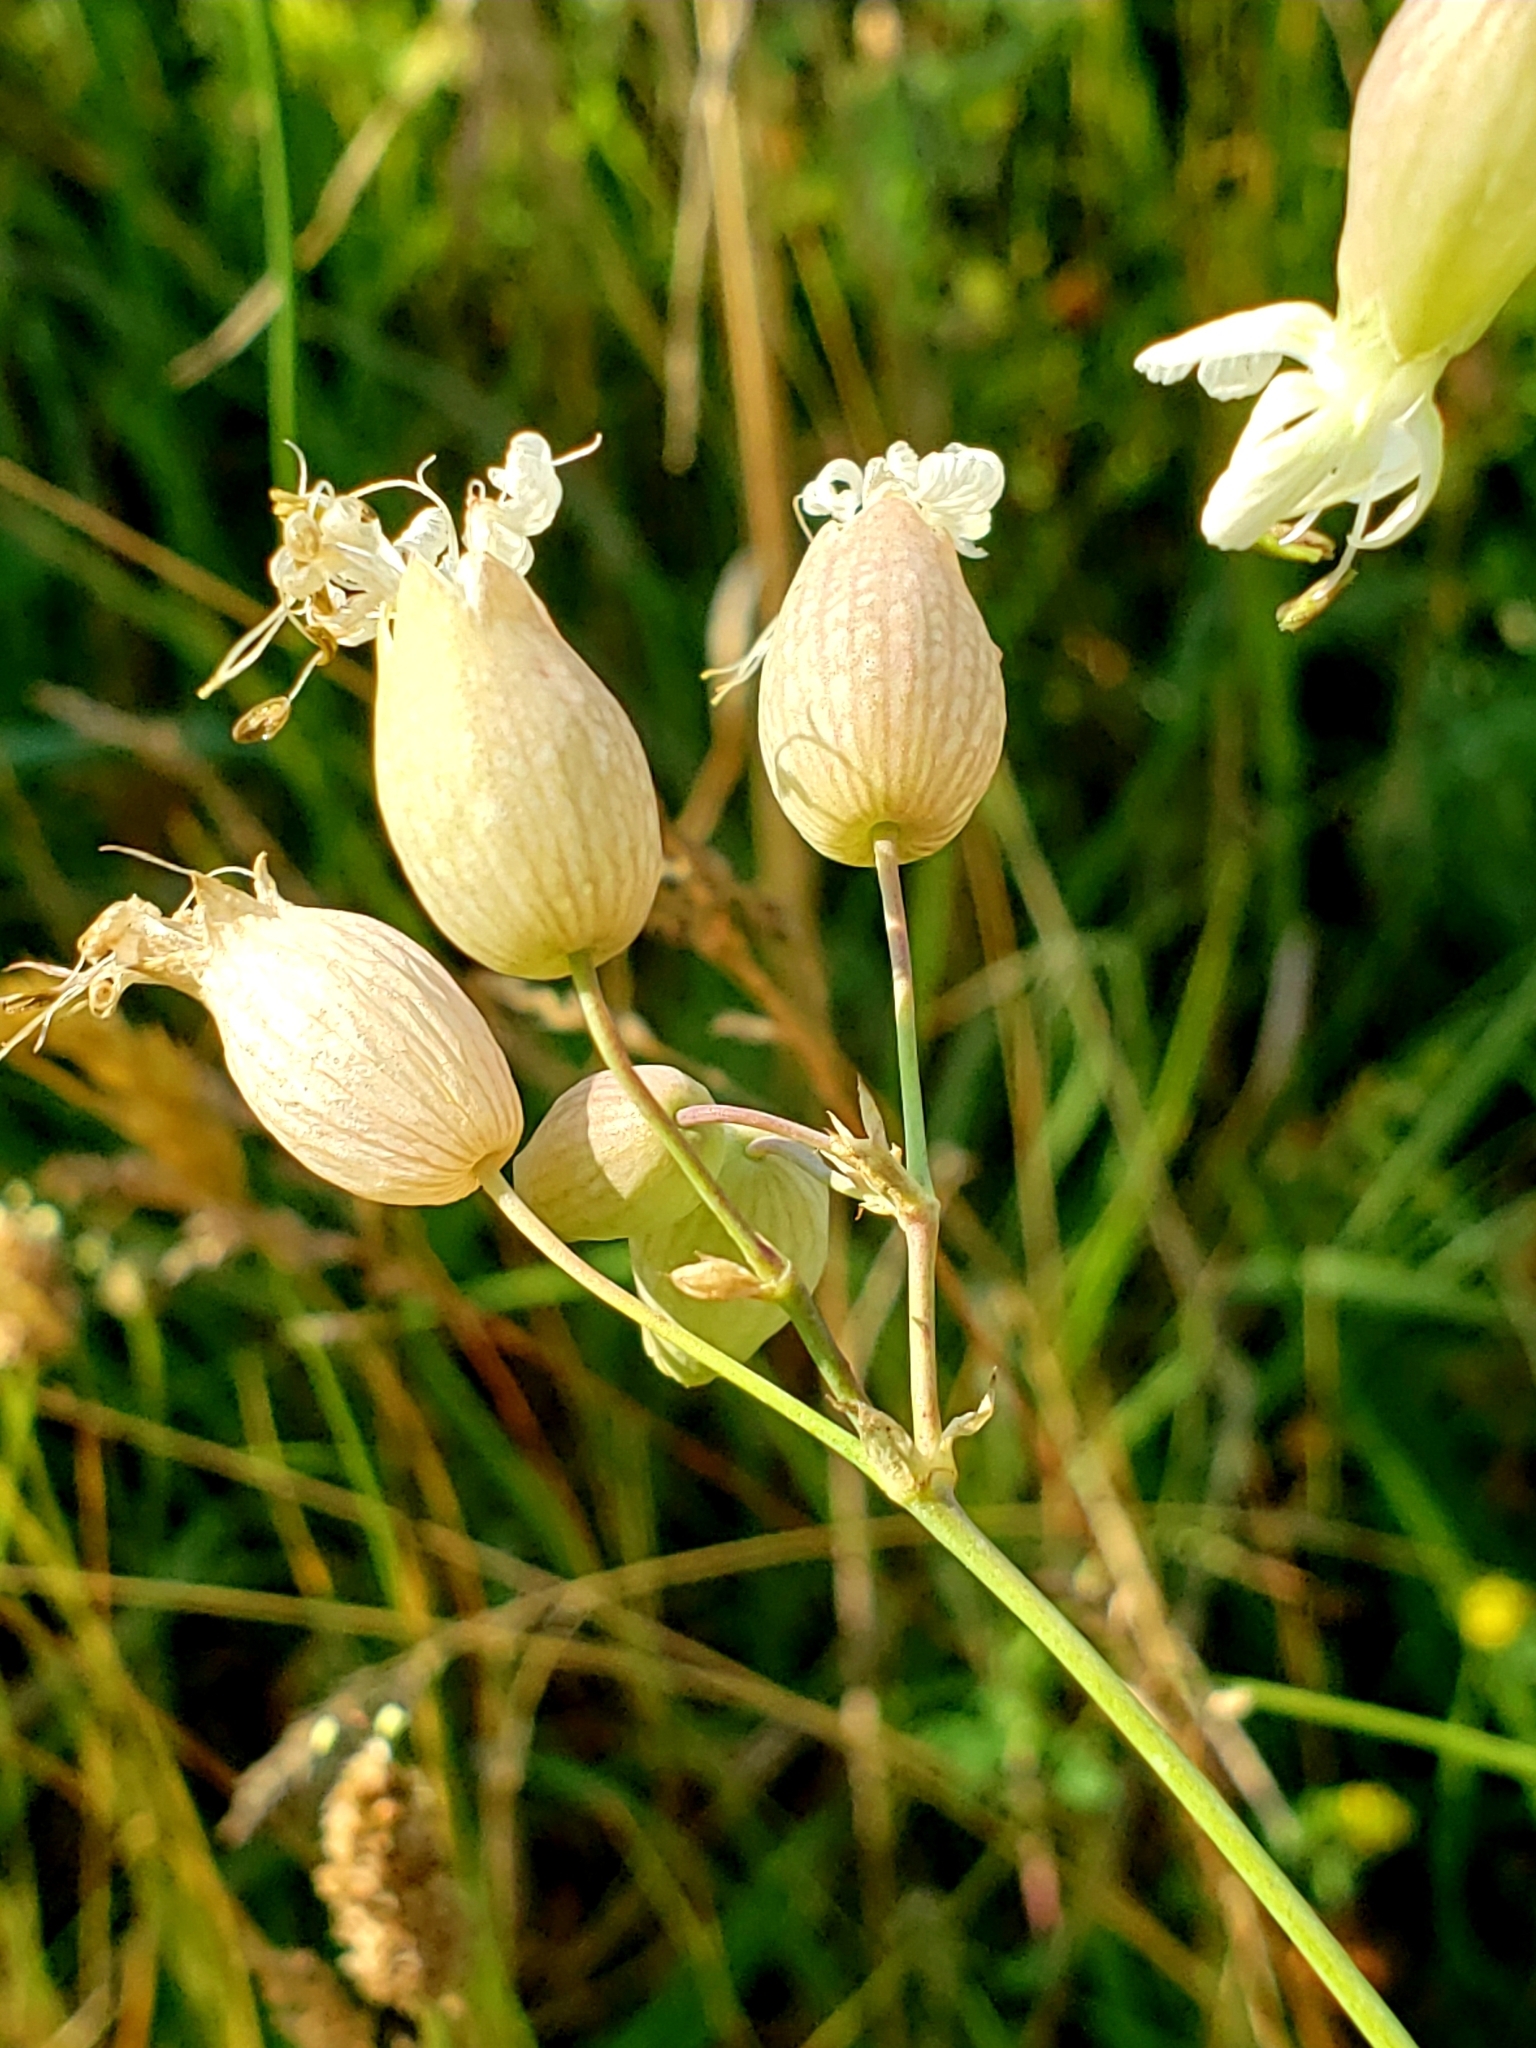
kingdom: Plantae
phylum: Tracheophyta
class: Magnoliopsida
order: Caryophyllales
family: Caryophyllaceae
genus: Silene
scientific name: Silene vulgaris
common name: Bladder campion
